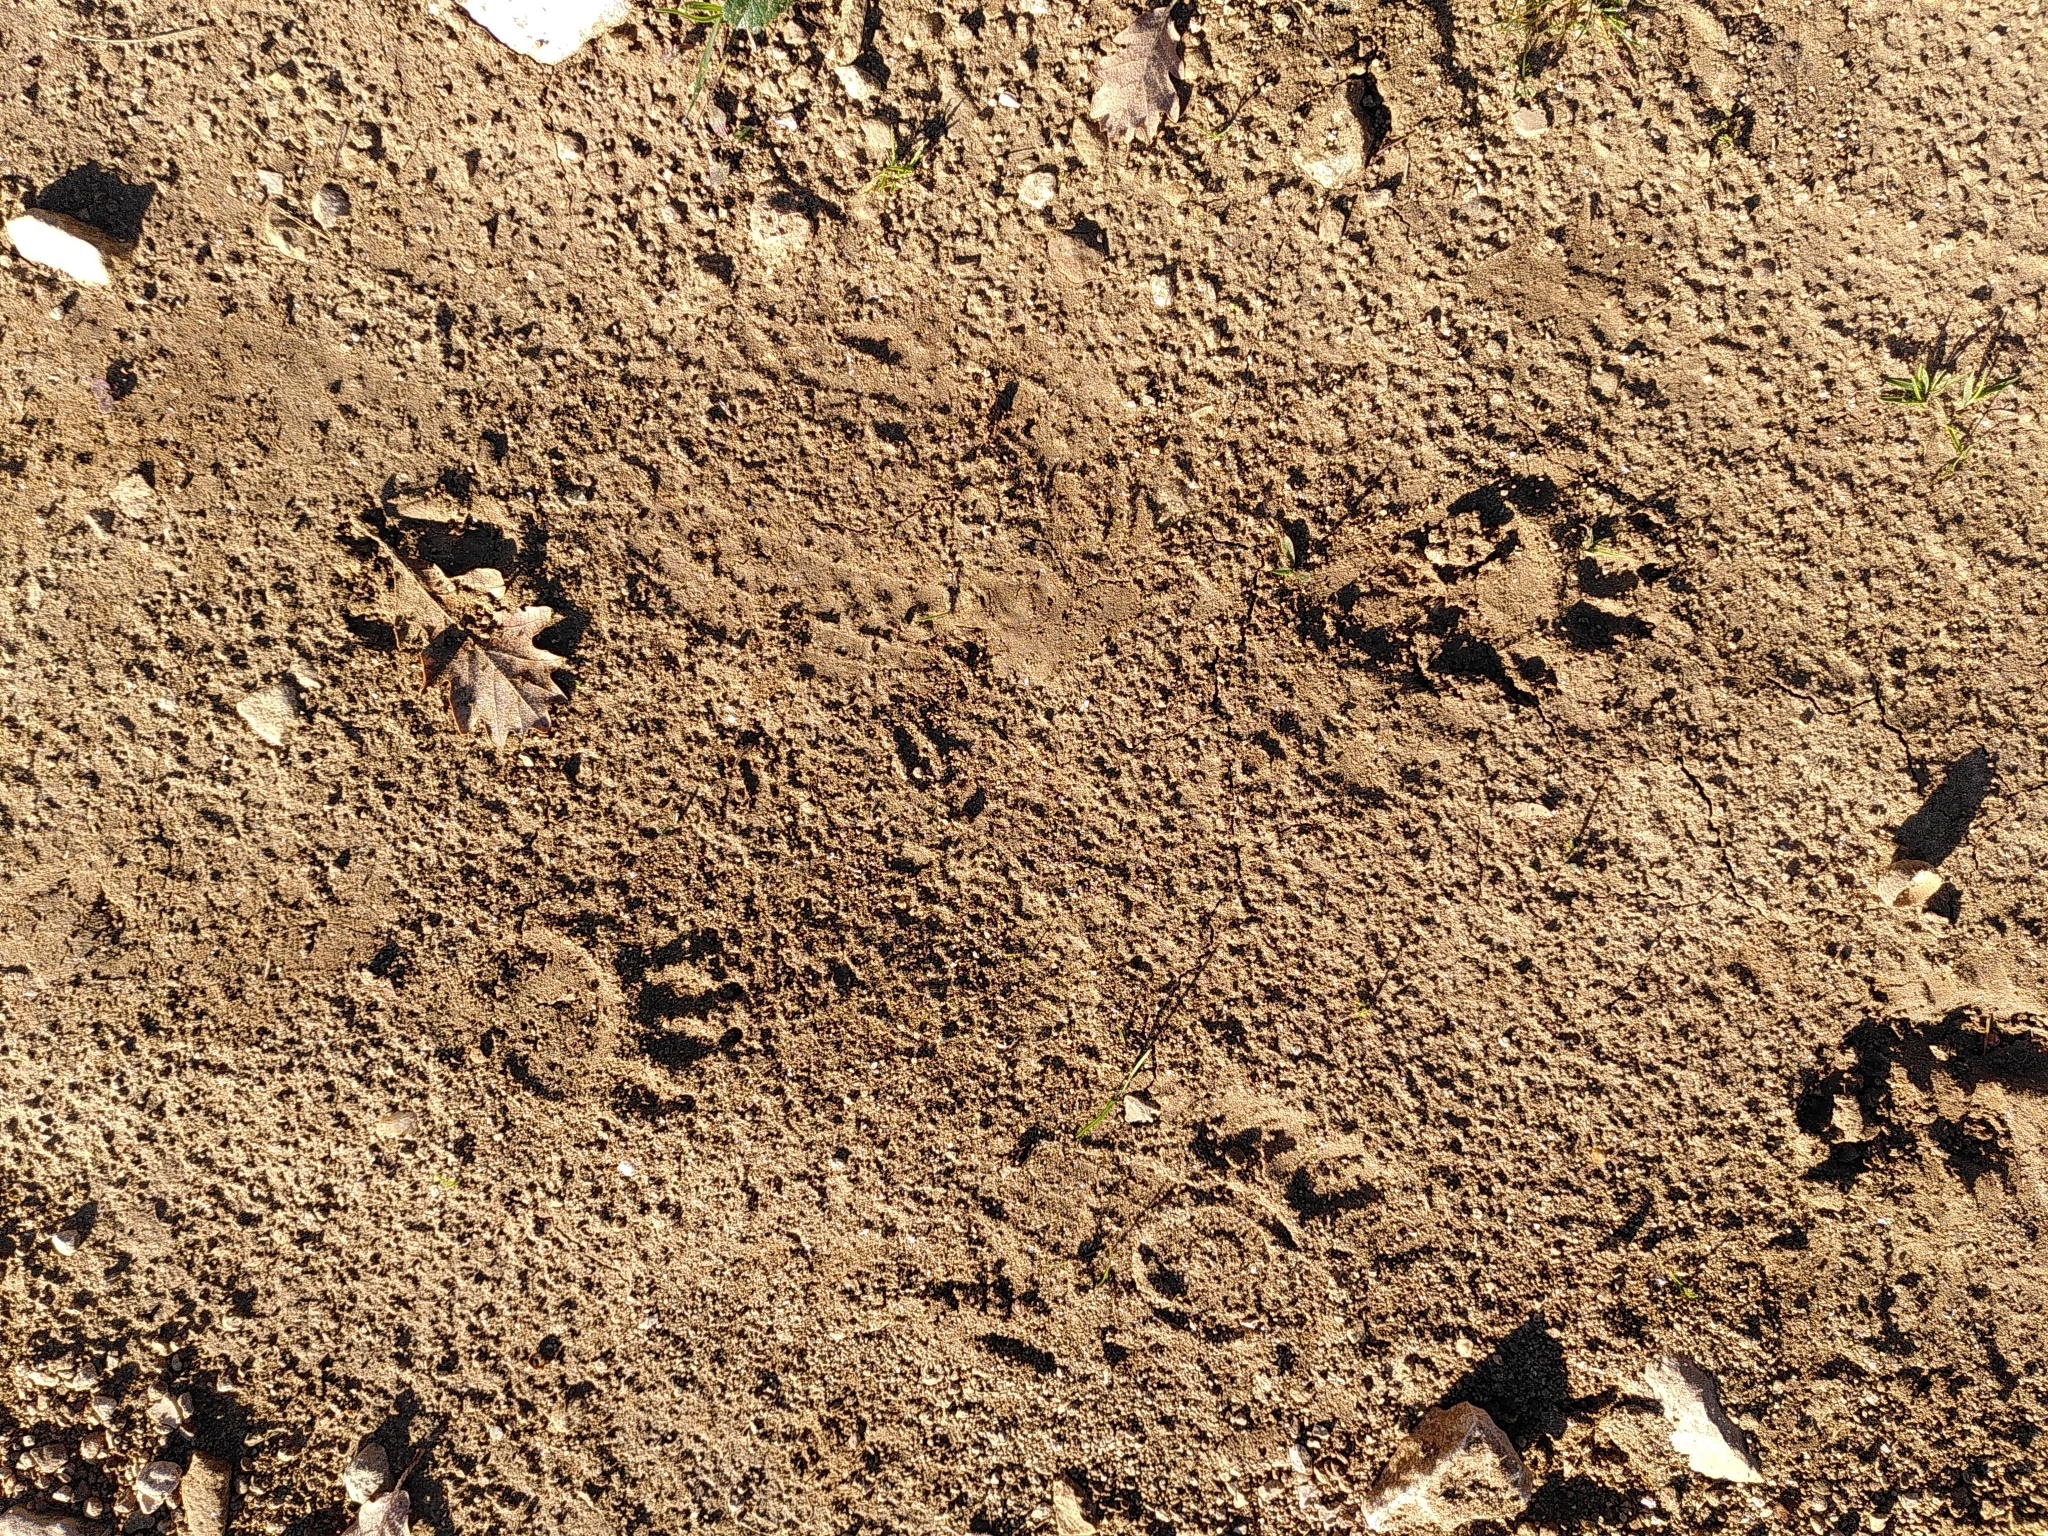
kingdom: Animalia
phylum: Chordata
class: Mammalia
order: Carnivora
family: Mustelidae
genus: Meles
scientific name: Meles meles
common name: Eurasian badger
